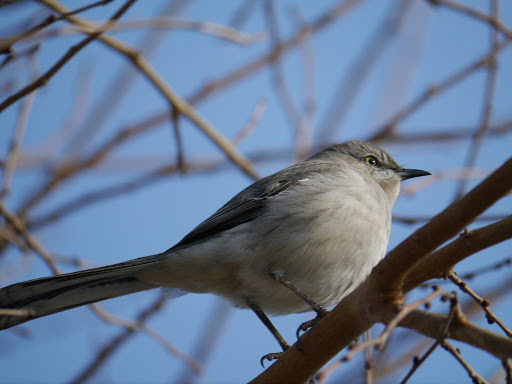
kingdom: Animalia
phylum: Chordata
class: Aves
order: Passeriformes
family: Mimidae
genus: Mimus
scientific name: Mimus polyglottos
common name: Northern mockingbird
